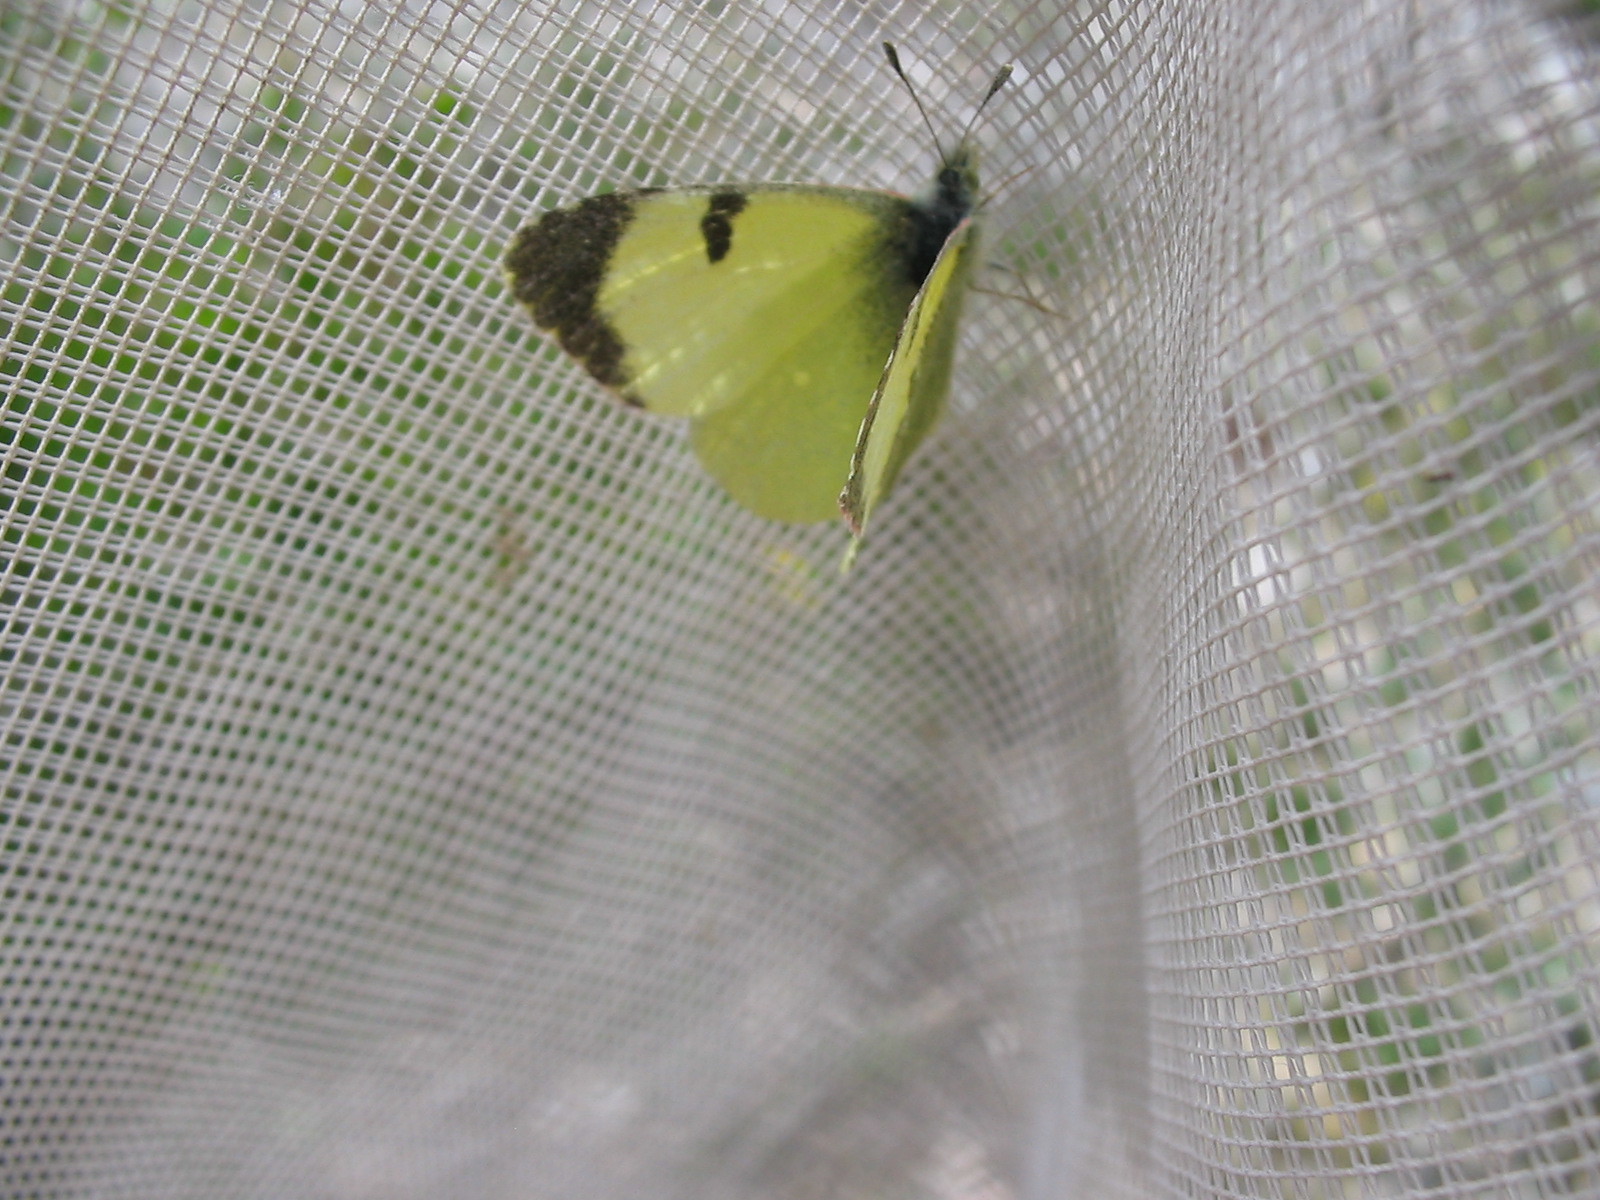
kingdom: Animalia
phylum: Arthropoda
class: Insecta
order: Lepidoptera
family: Pieridae
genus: Elphinstonia
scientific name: Elphinstonia penia
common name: Eastern greenish black-tip
